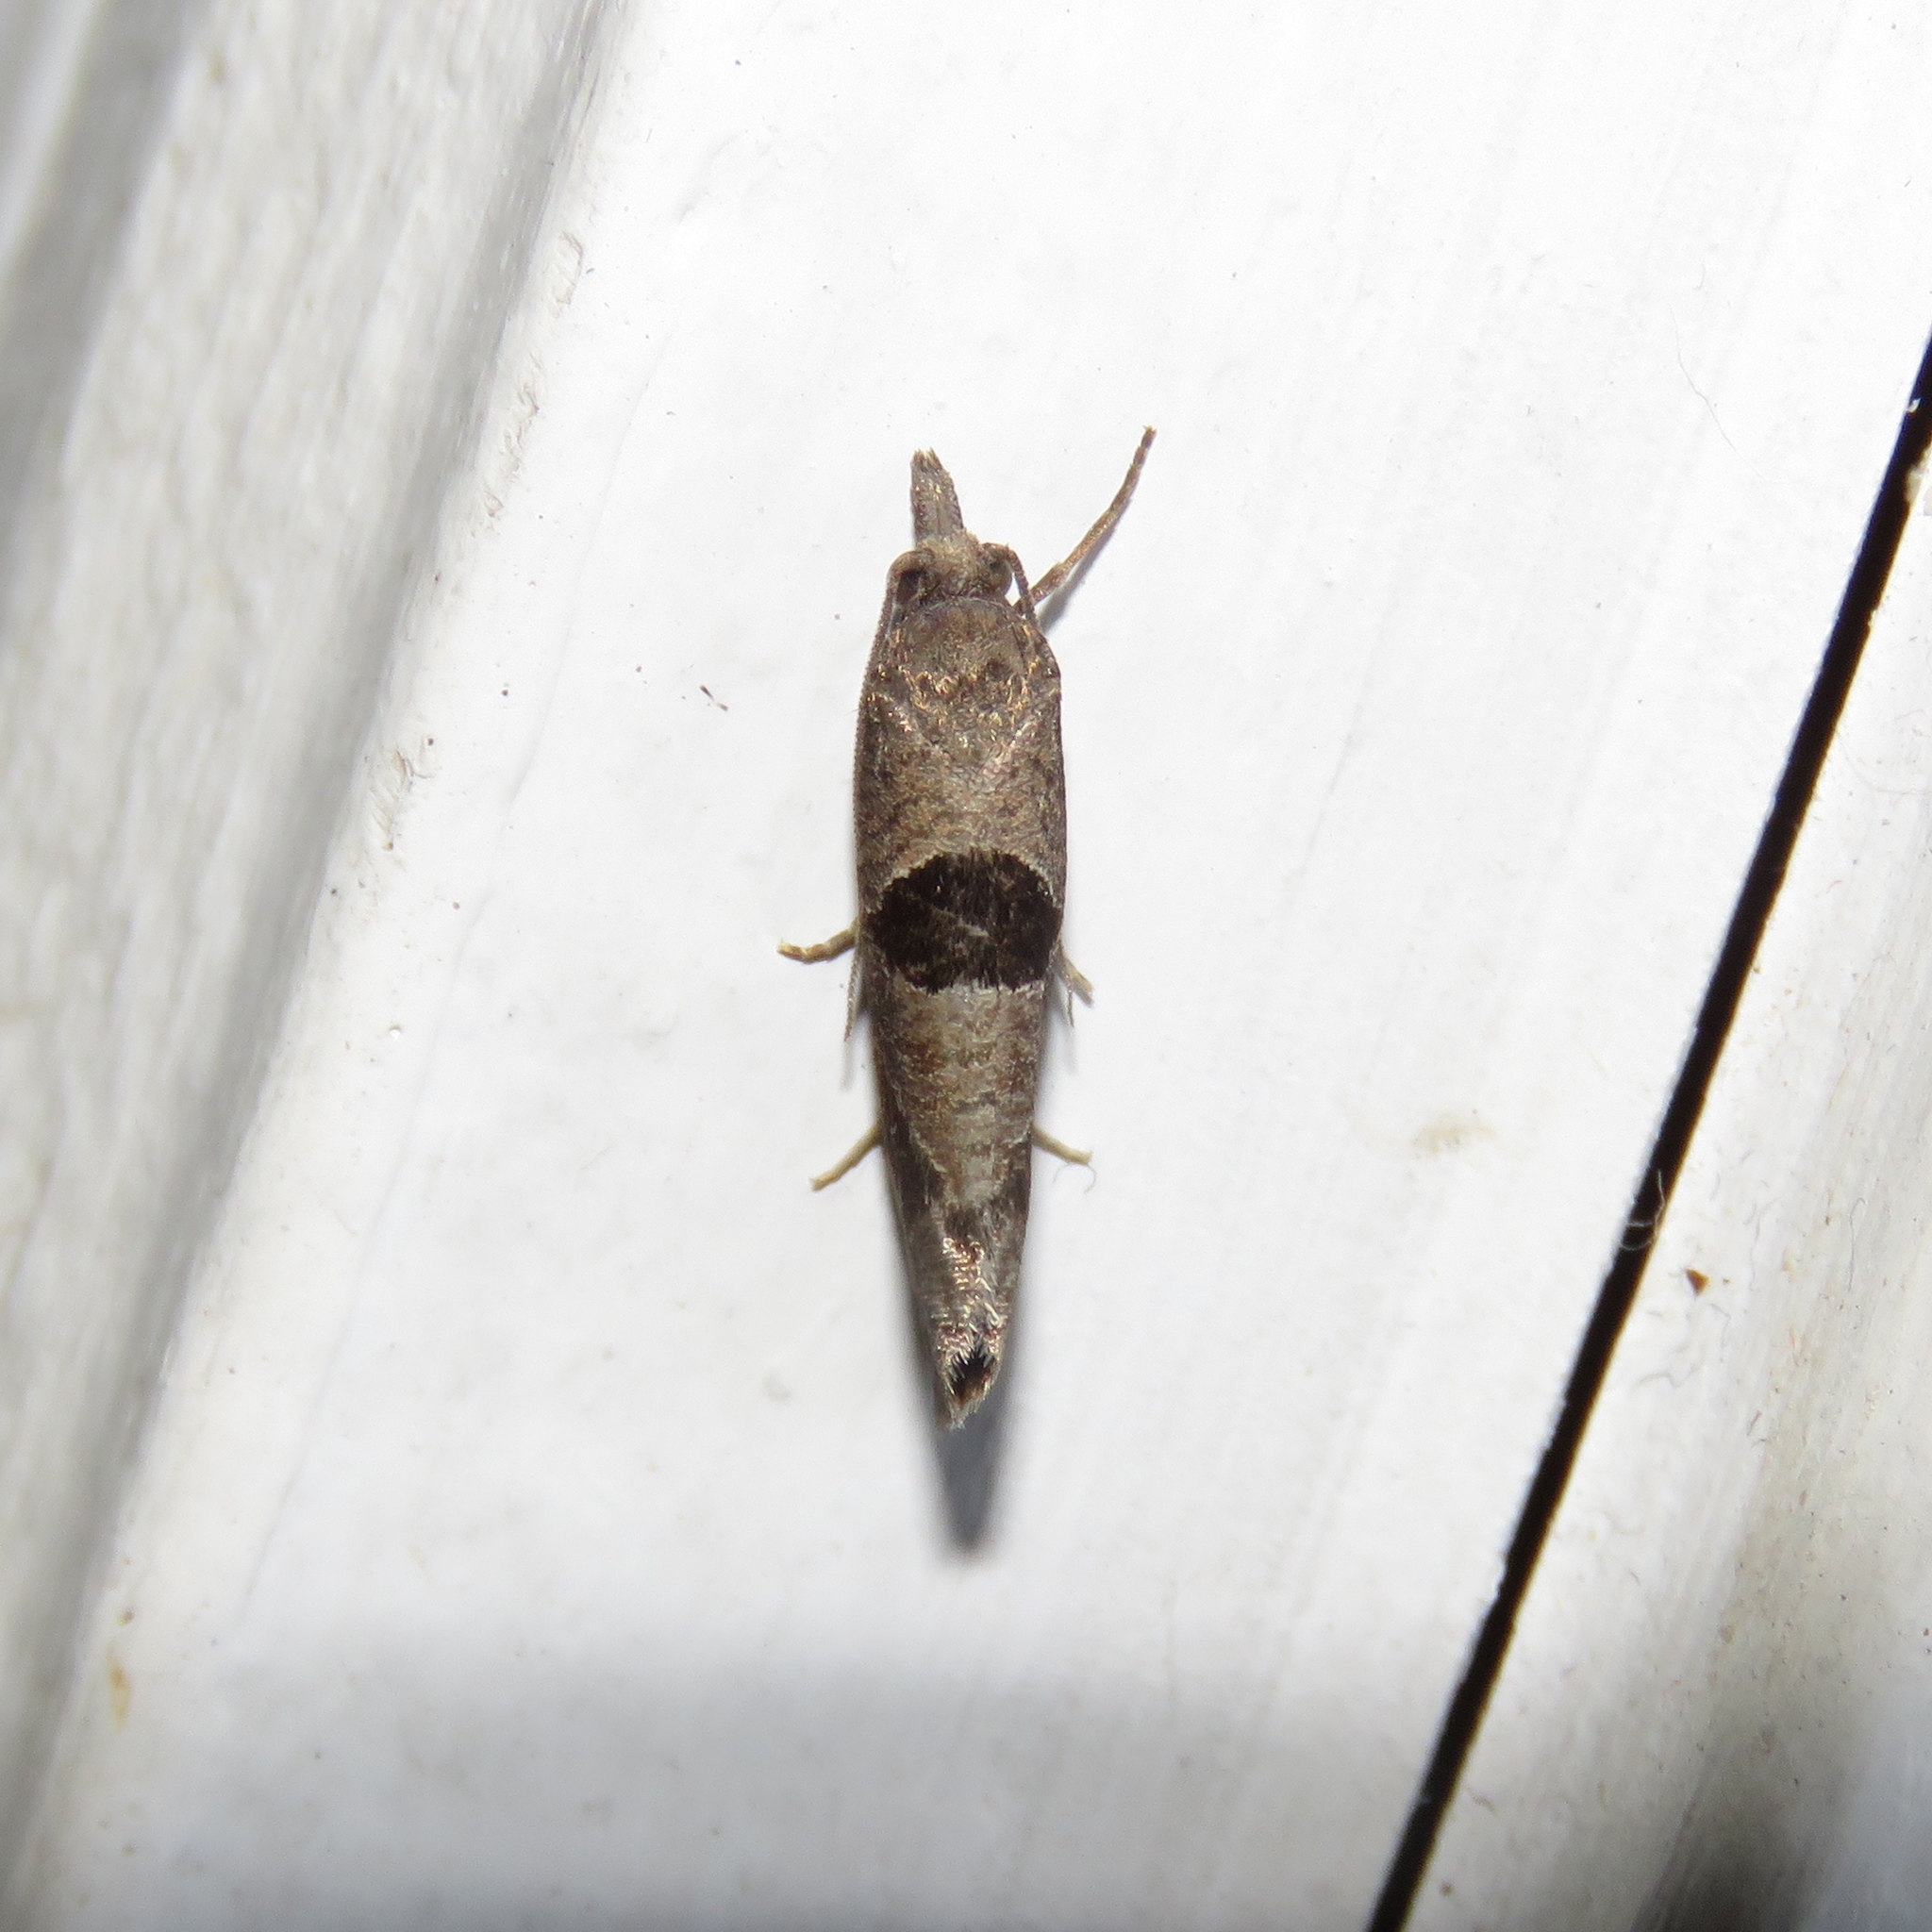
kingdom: Animalia
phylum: Arthropoda
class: Insecta
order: Lepidoptera
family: Tortricidae
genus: Pelochrista
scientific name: Pelochrista dorsisignatana
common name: Triangle-backed pelochrista moth
